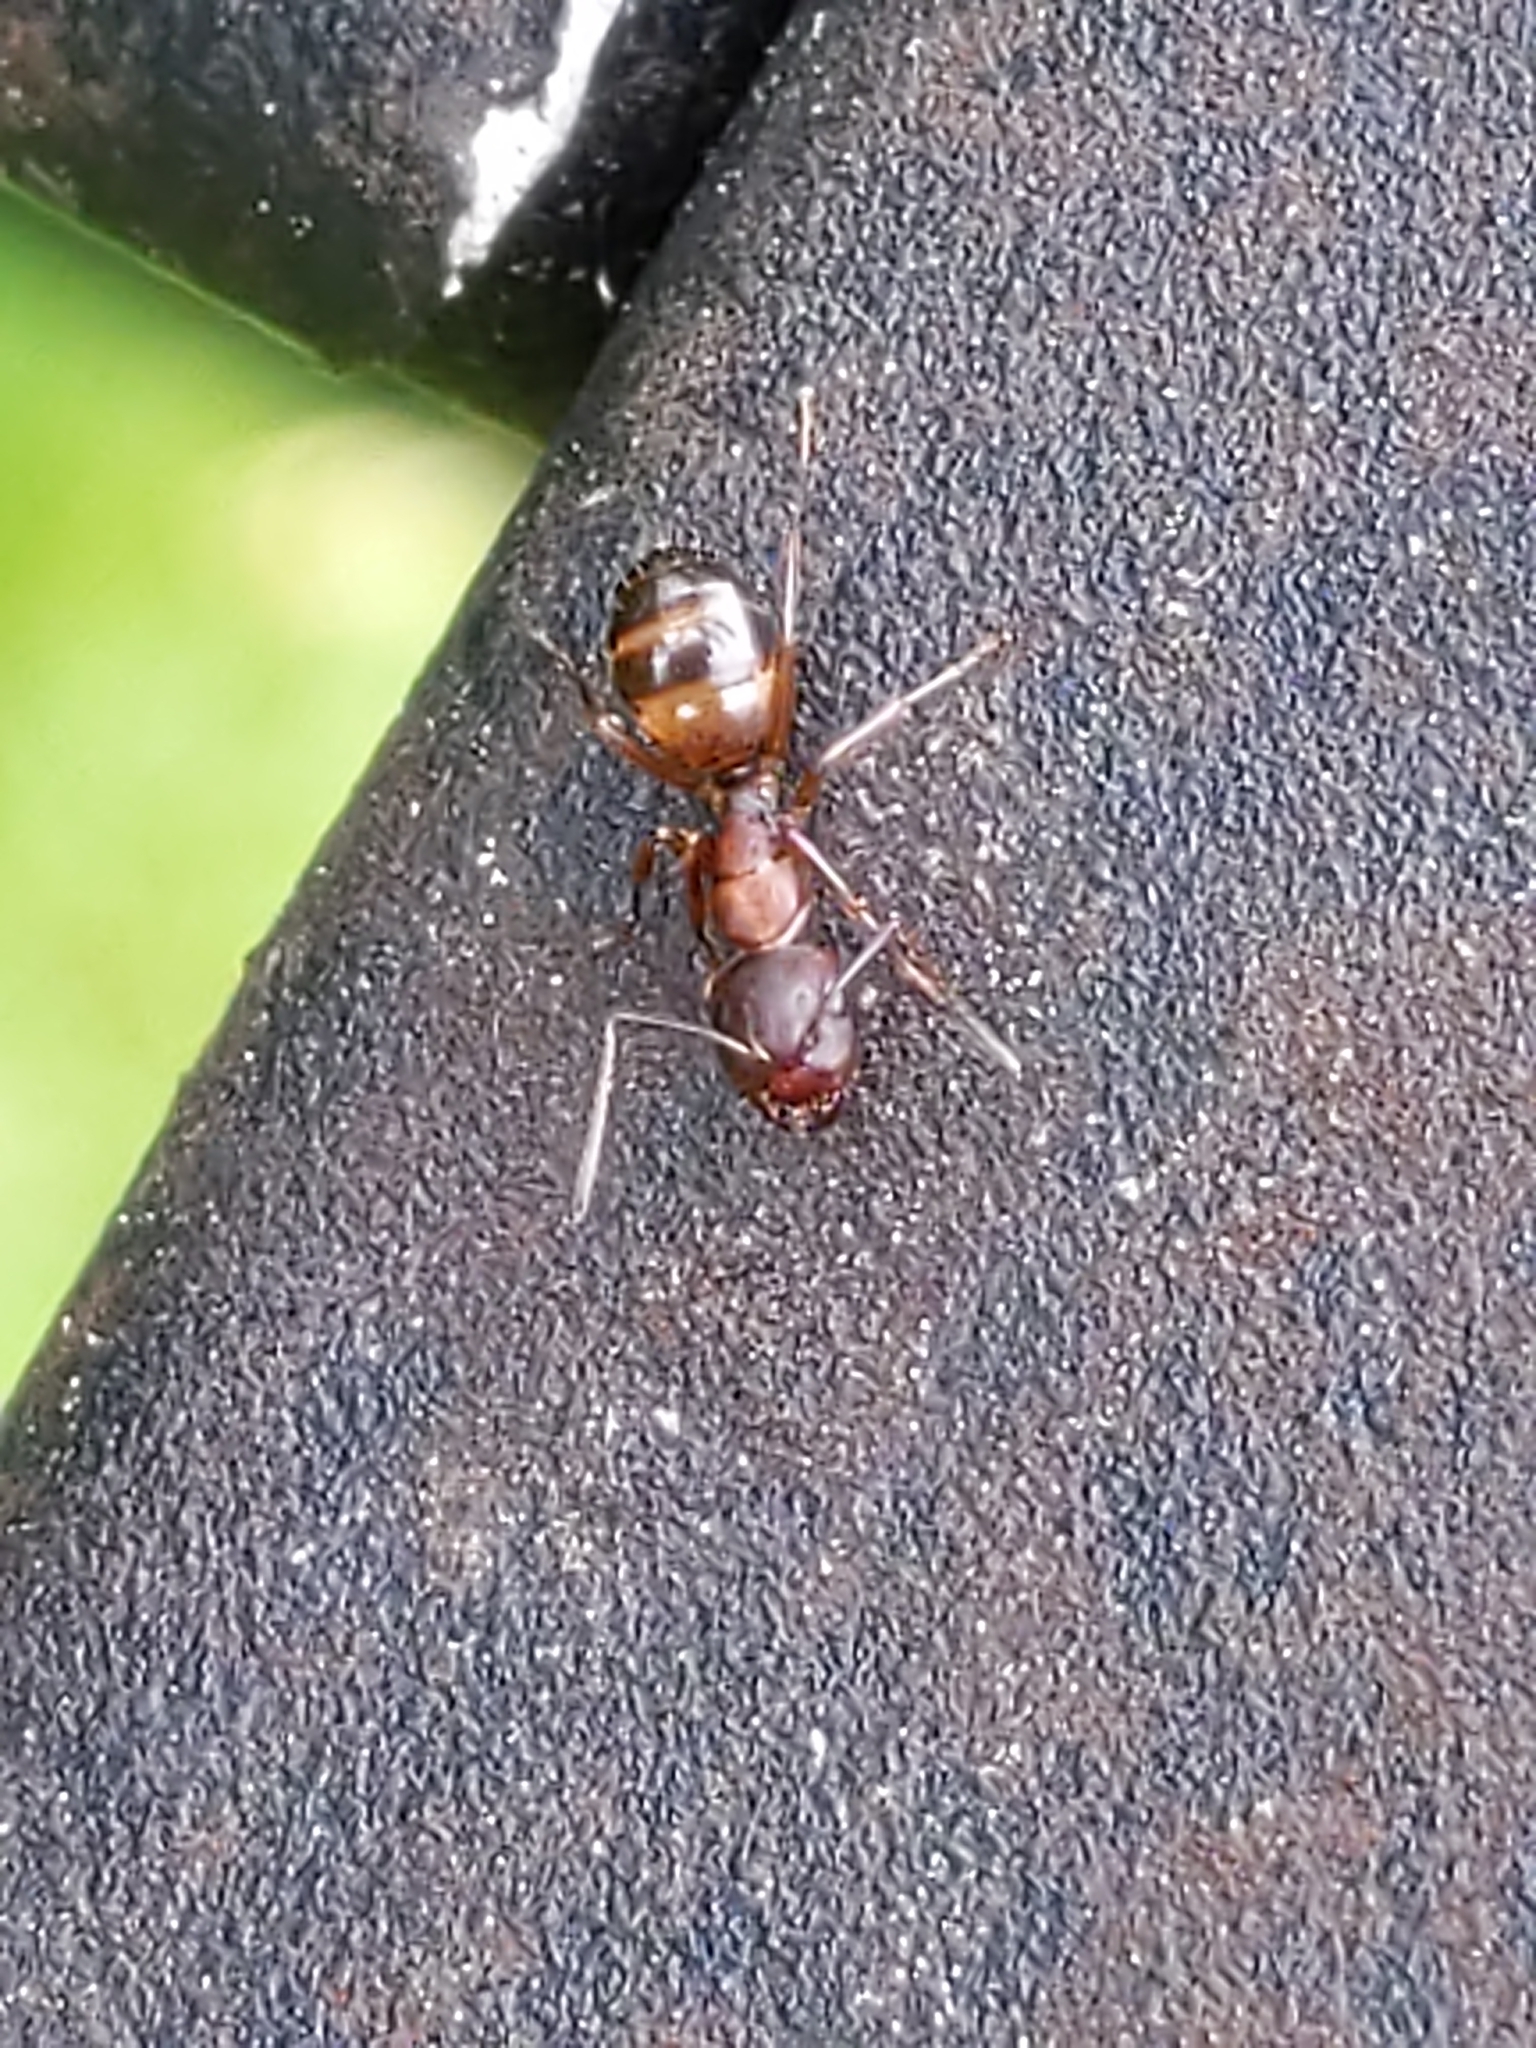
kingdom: Animalia
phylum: Arthropoda
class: Insecta
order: Hymenoptera
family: Formicidae
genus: Camponotus
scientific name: Camponotus subbarbatus
